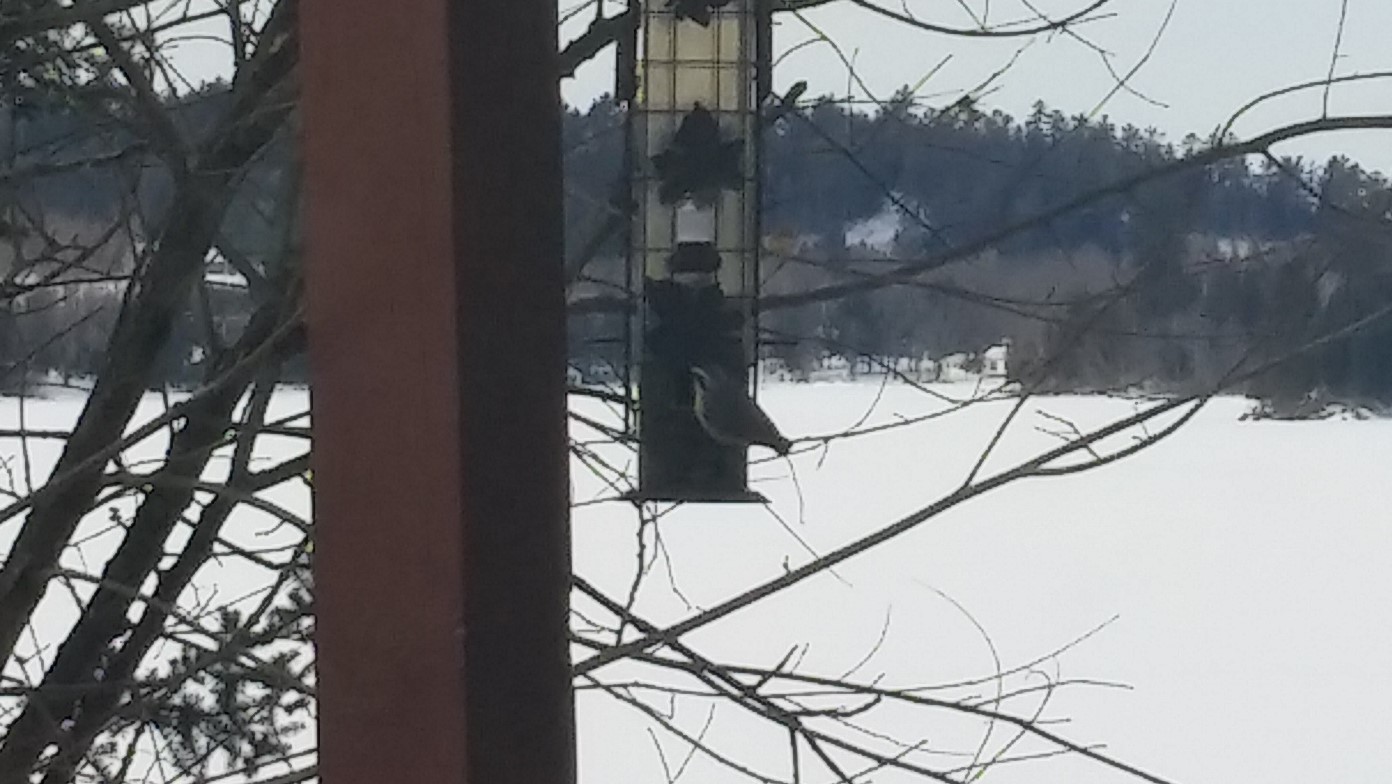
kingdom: Animalia
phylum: Chordata
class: Aves
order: Passeriformes
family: Sittidae
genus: Sitta
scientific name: Sitta canadensis
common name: Red-breasted nuthatch
